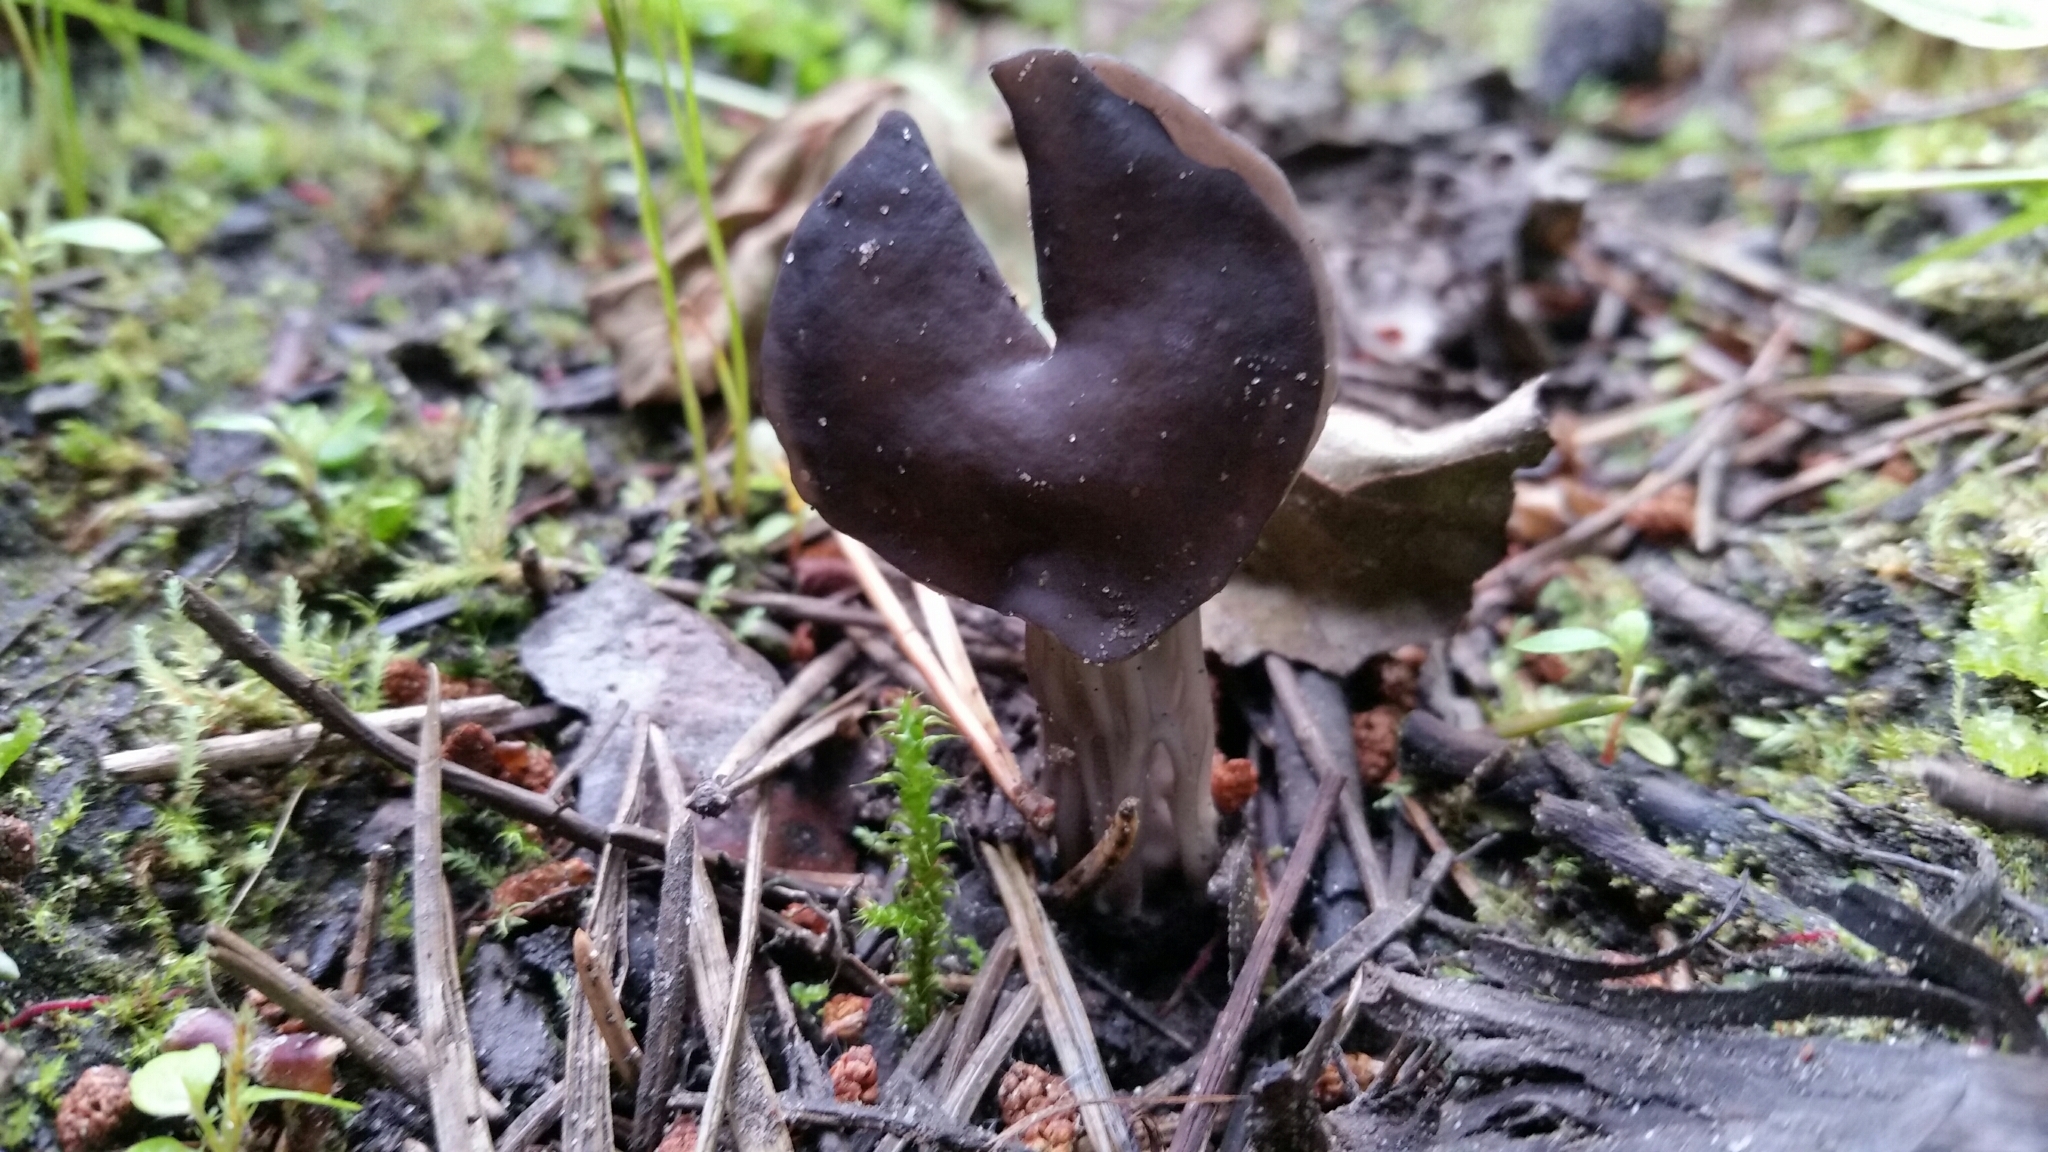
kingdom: Fungi
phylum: Ascomycota
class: Pezizomycetes
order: Pezizales
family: Helvellaceae
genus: Helvella
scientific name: Helvella lacunosa
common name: Elfin saddle
